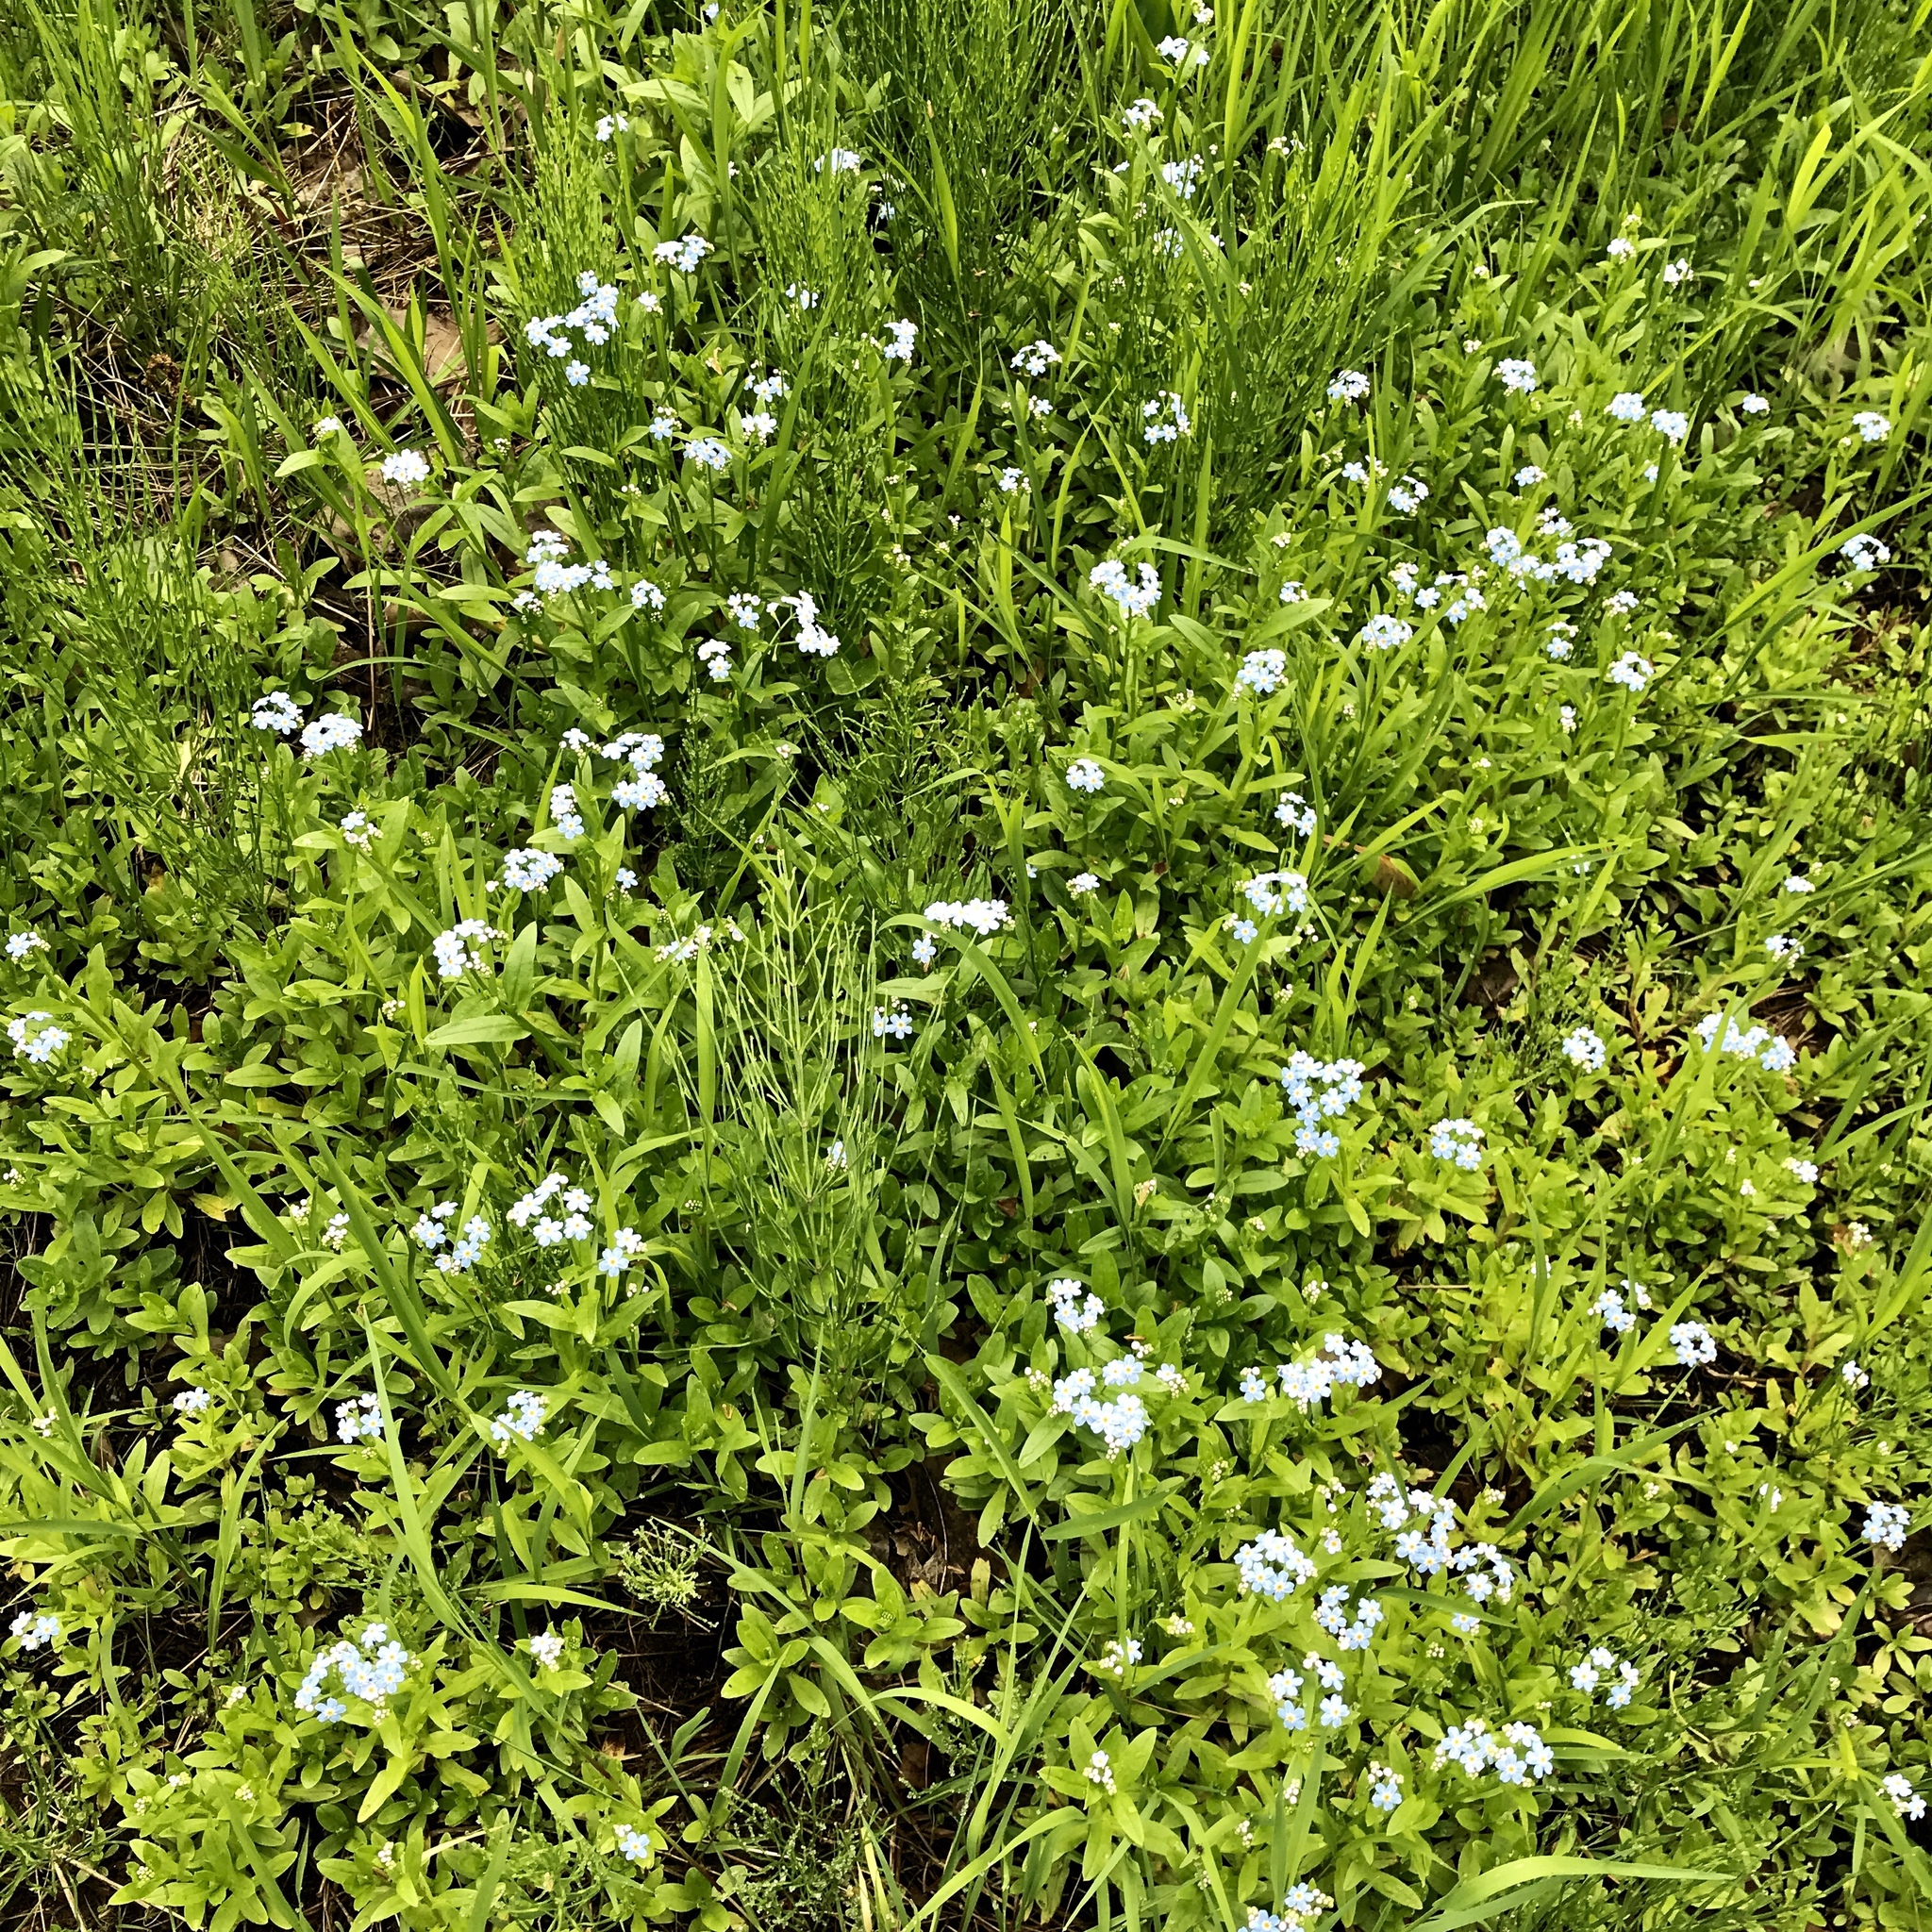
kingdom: Plantae
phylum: Tracheophyta
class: Magnoliopsida
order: Boraginales
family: Boraginaceae
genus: Myosotis
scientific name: Myosotis scorpioides
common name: Water forget-me-not
